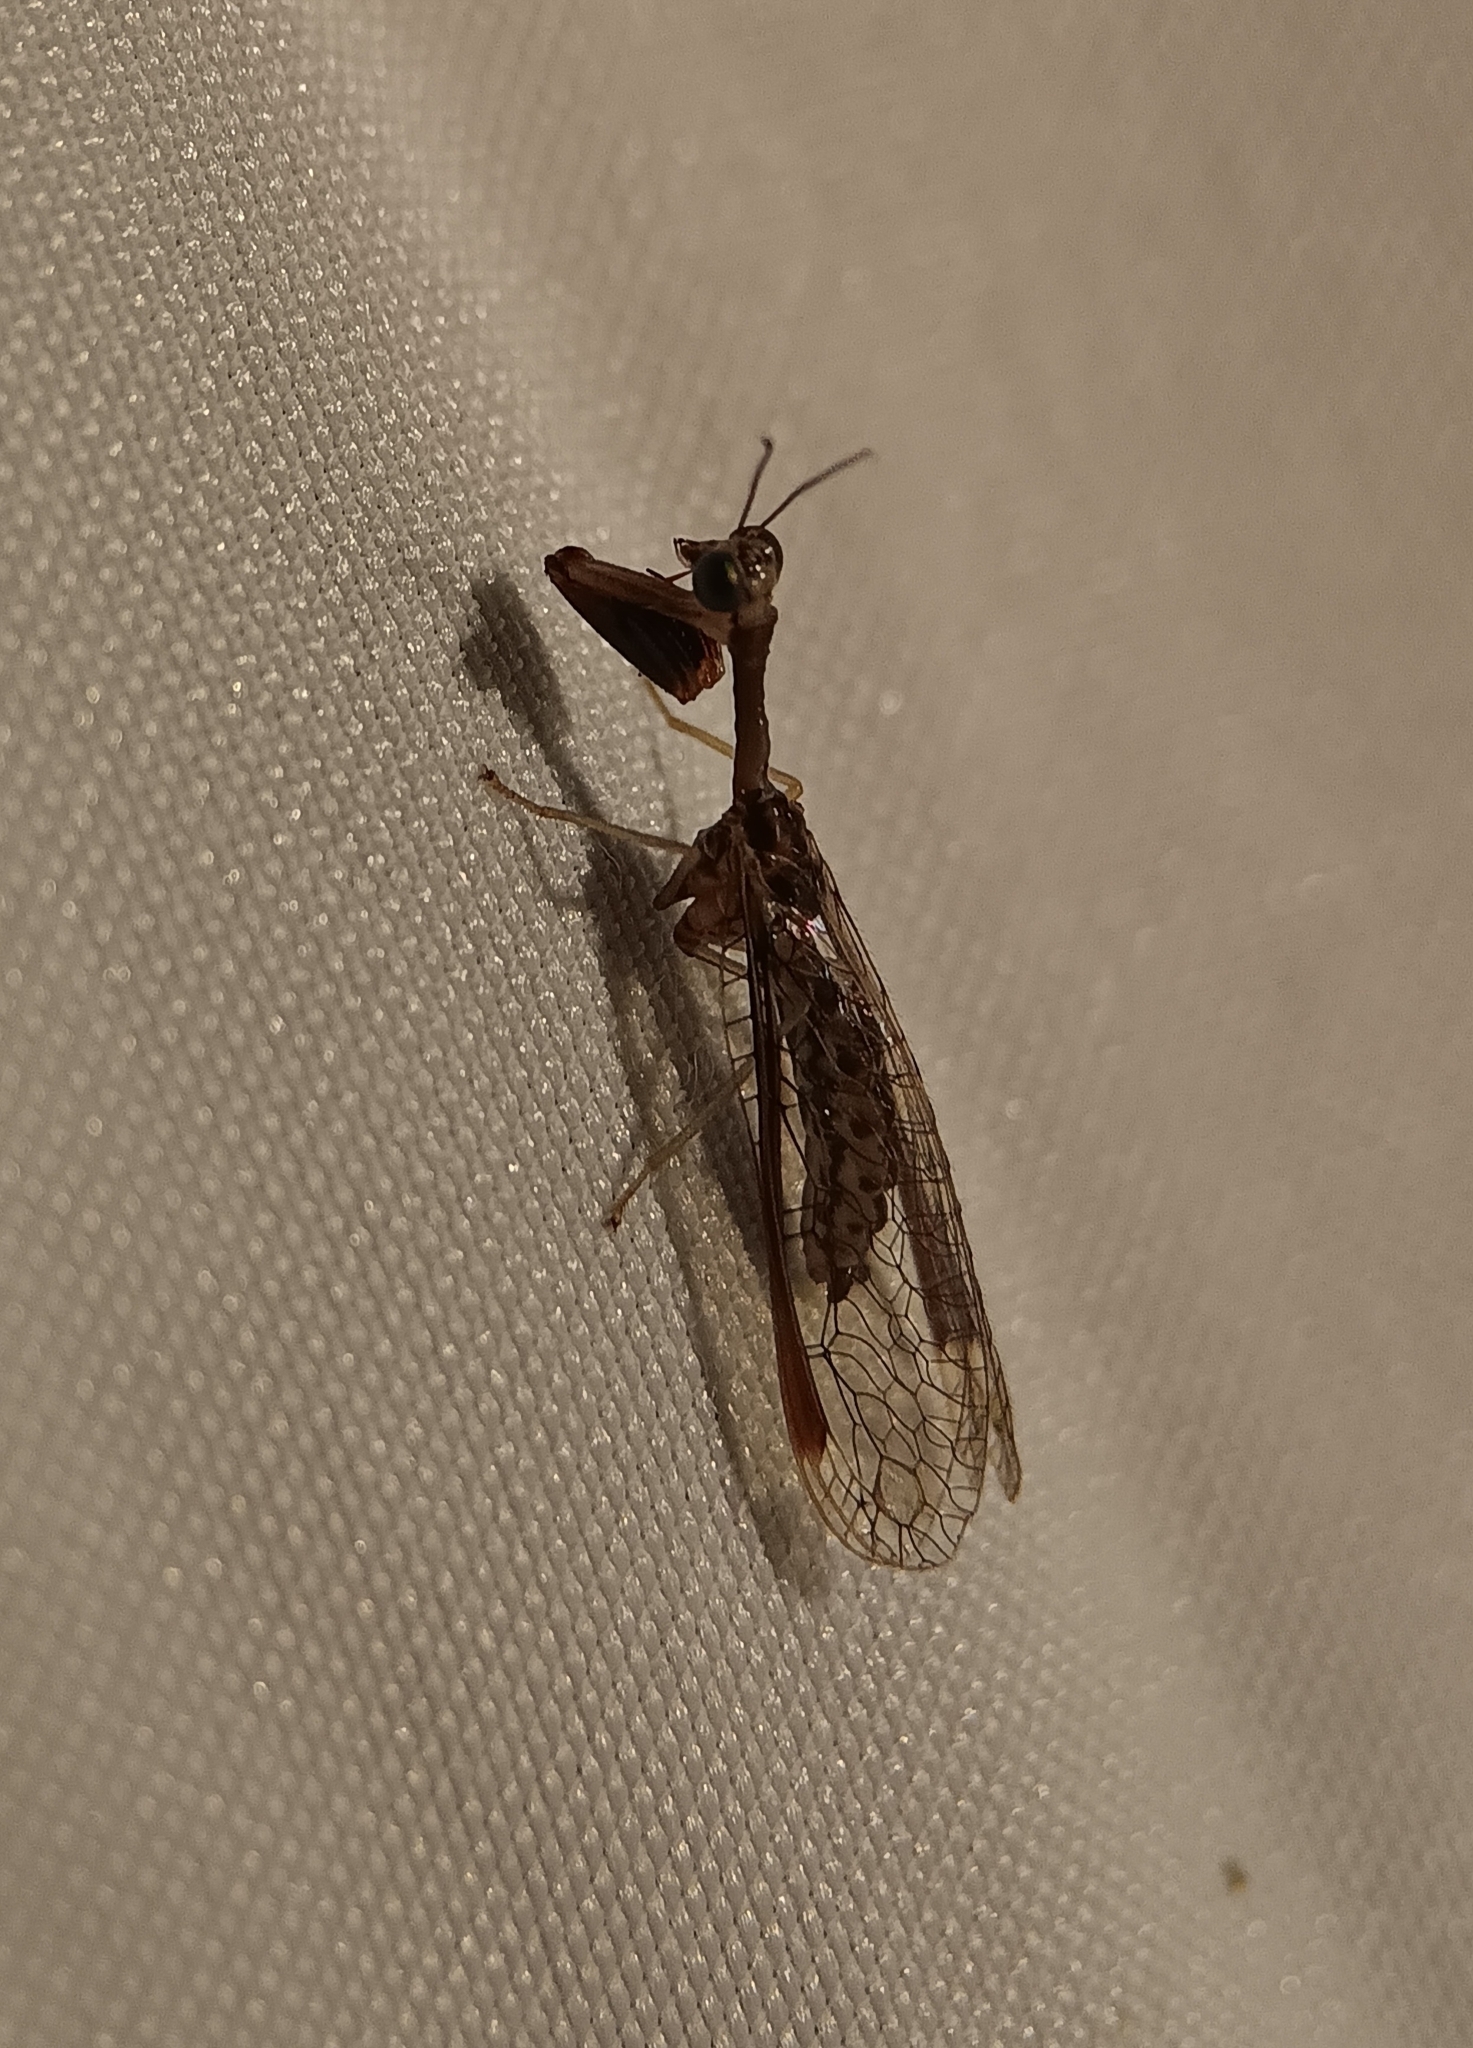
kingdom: Animalia
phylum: Arthropoda
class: Insecta
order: Neuroptera
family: Mantispidae
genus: Dicromantispa
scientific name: Dicromantispa sayi
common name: Say's mantidfly
